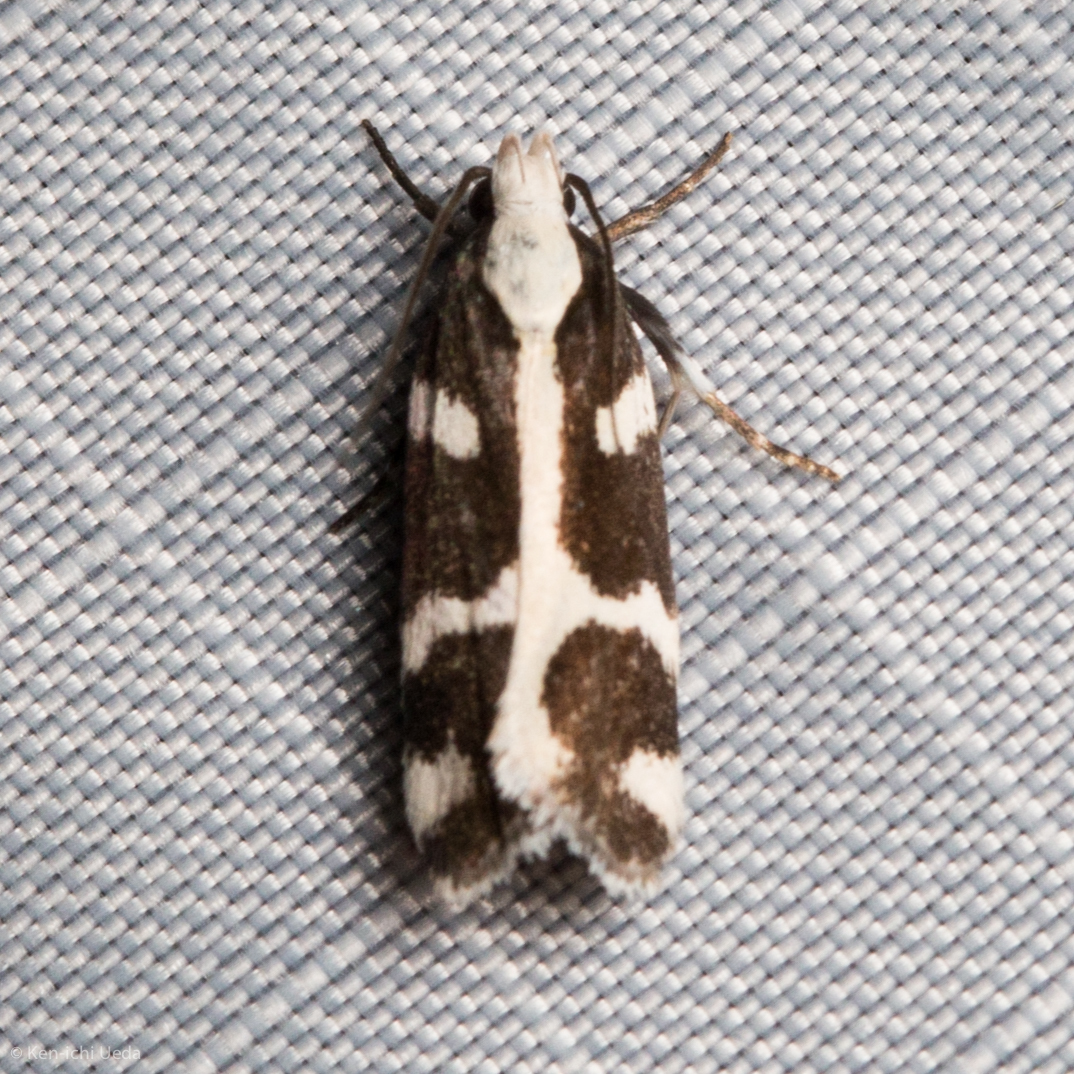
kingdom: Animalia
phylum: Arthropoda
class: Insecta
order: Lepidoptera
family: Gelechiidae
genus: Epilechia
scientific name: Epilechia catalinella
